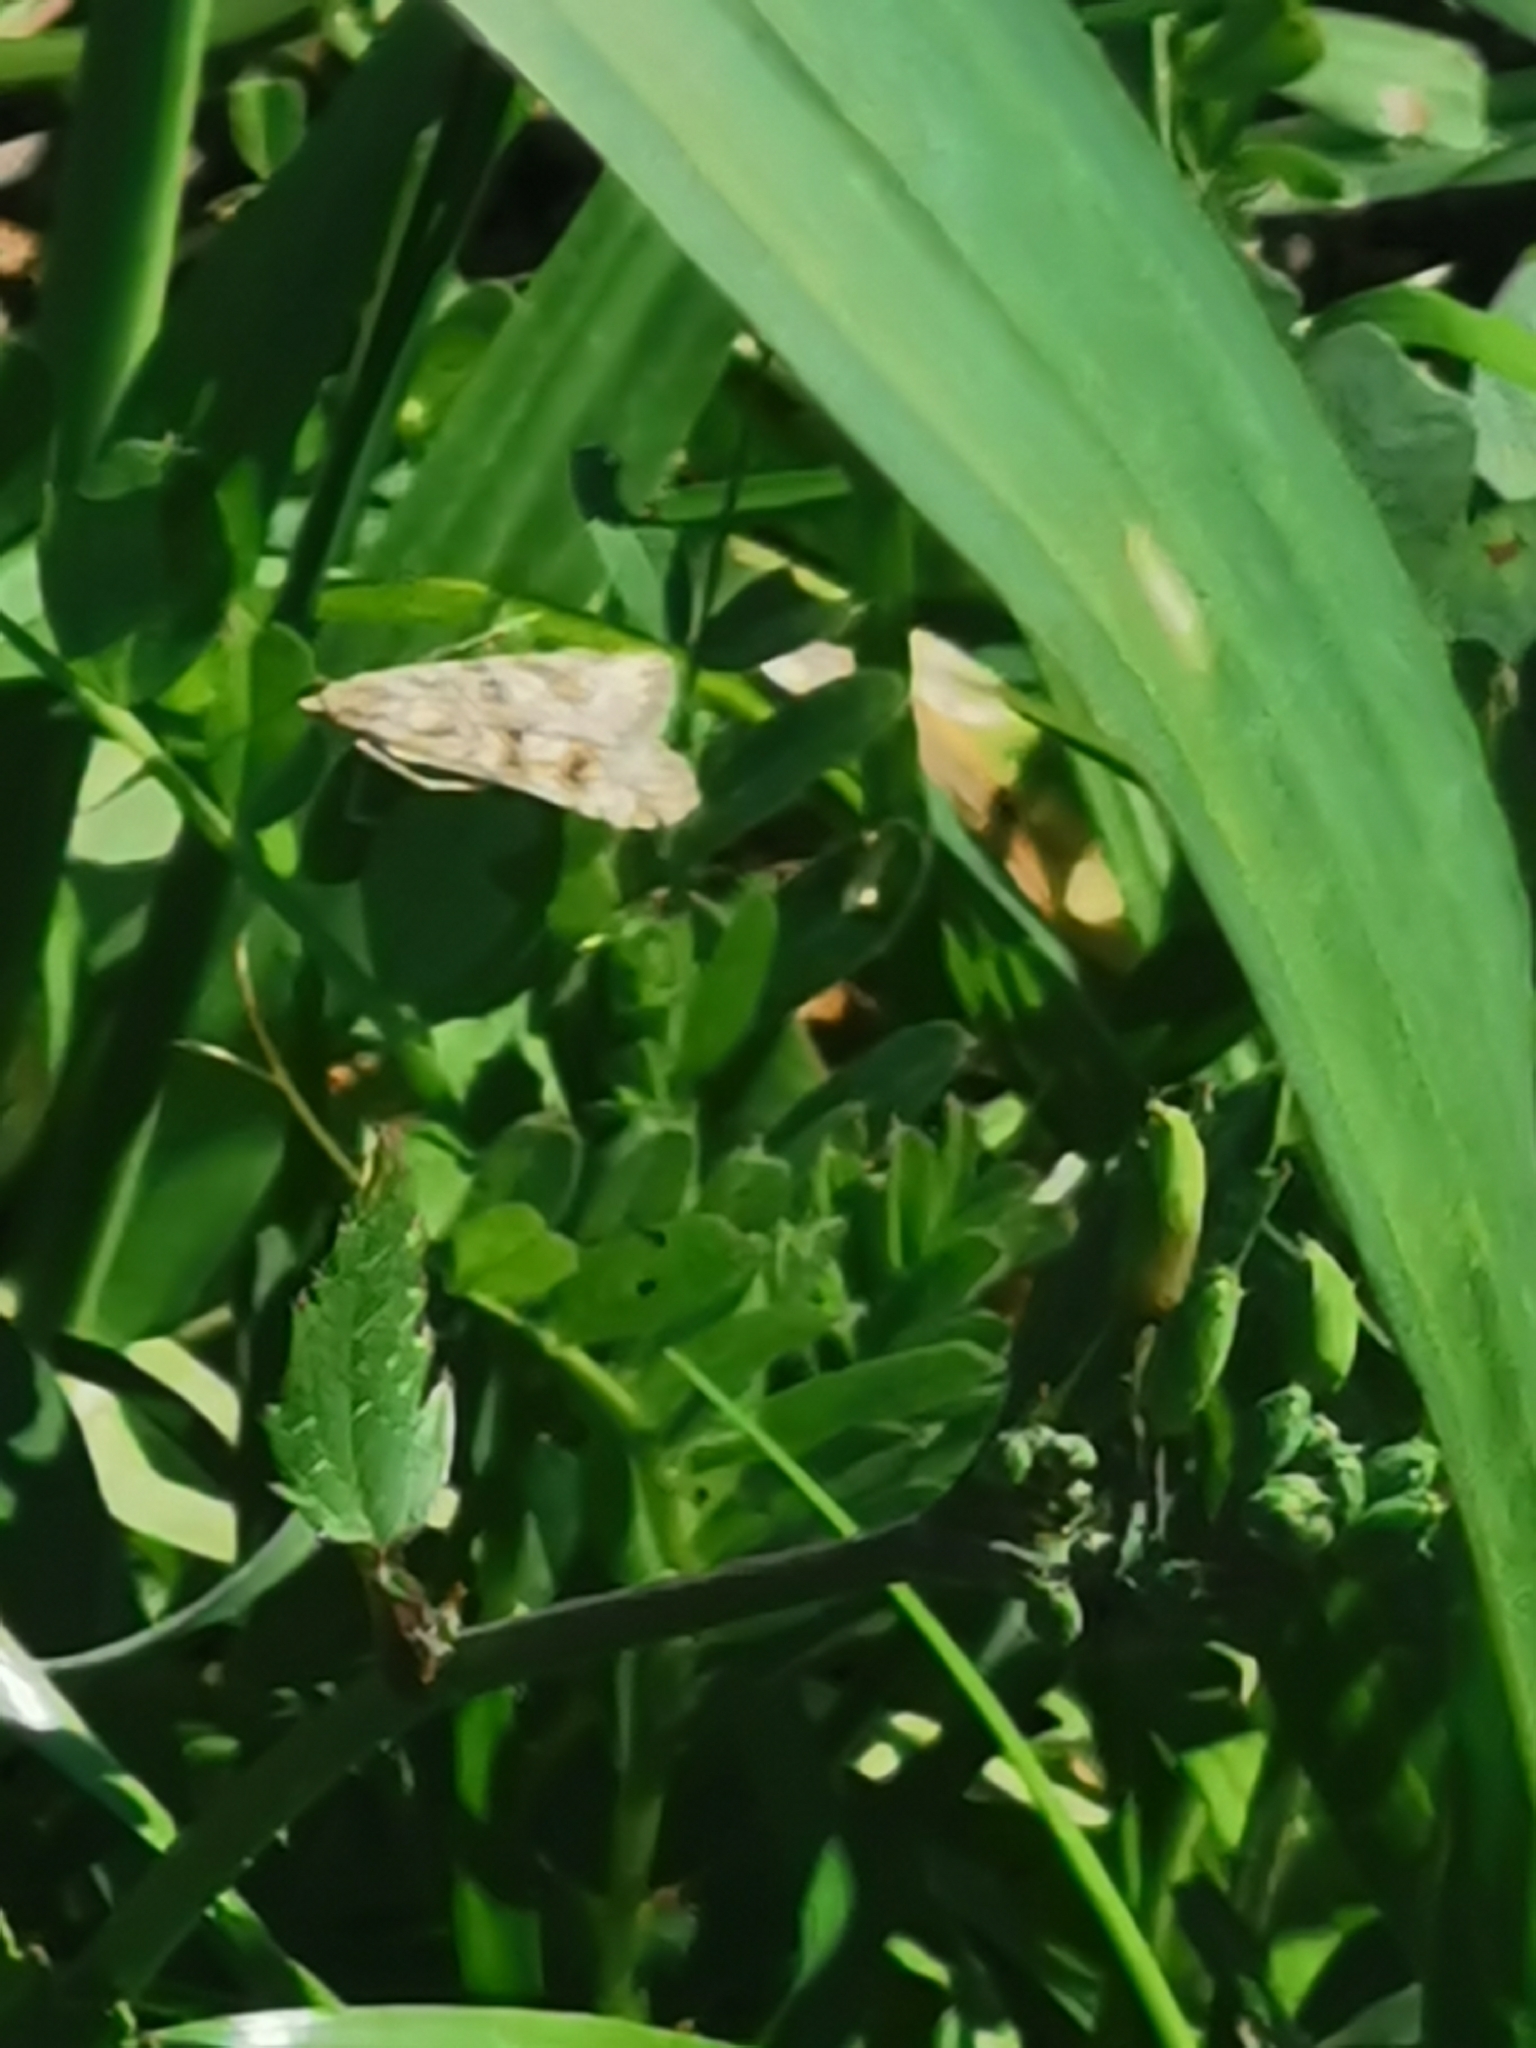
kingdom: Animalia
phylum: Arthropoda
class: Insecta
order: Lepidoptera
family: Crambidae
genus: Nomophila
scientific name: Nomophila noctuella
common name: Rush veneer
